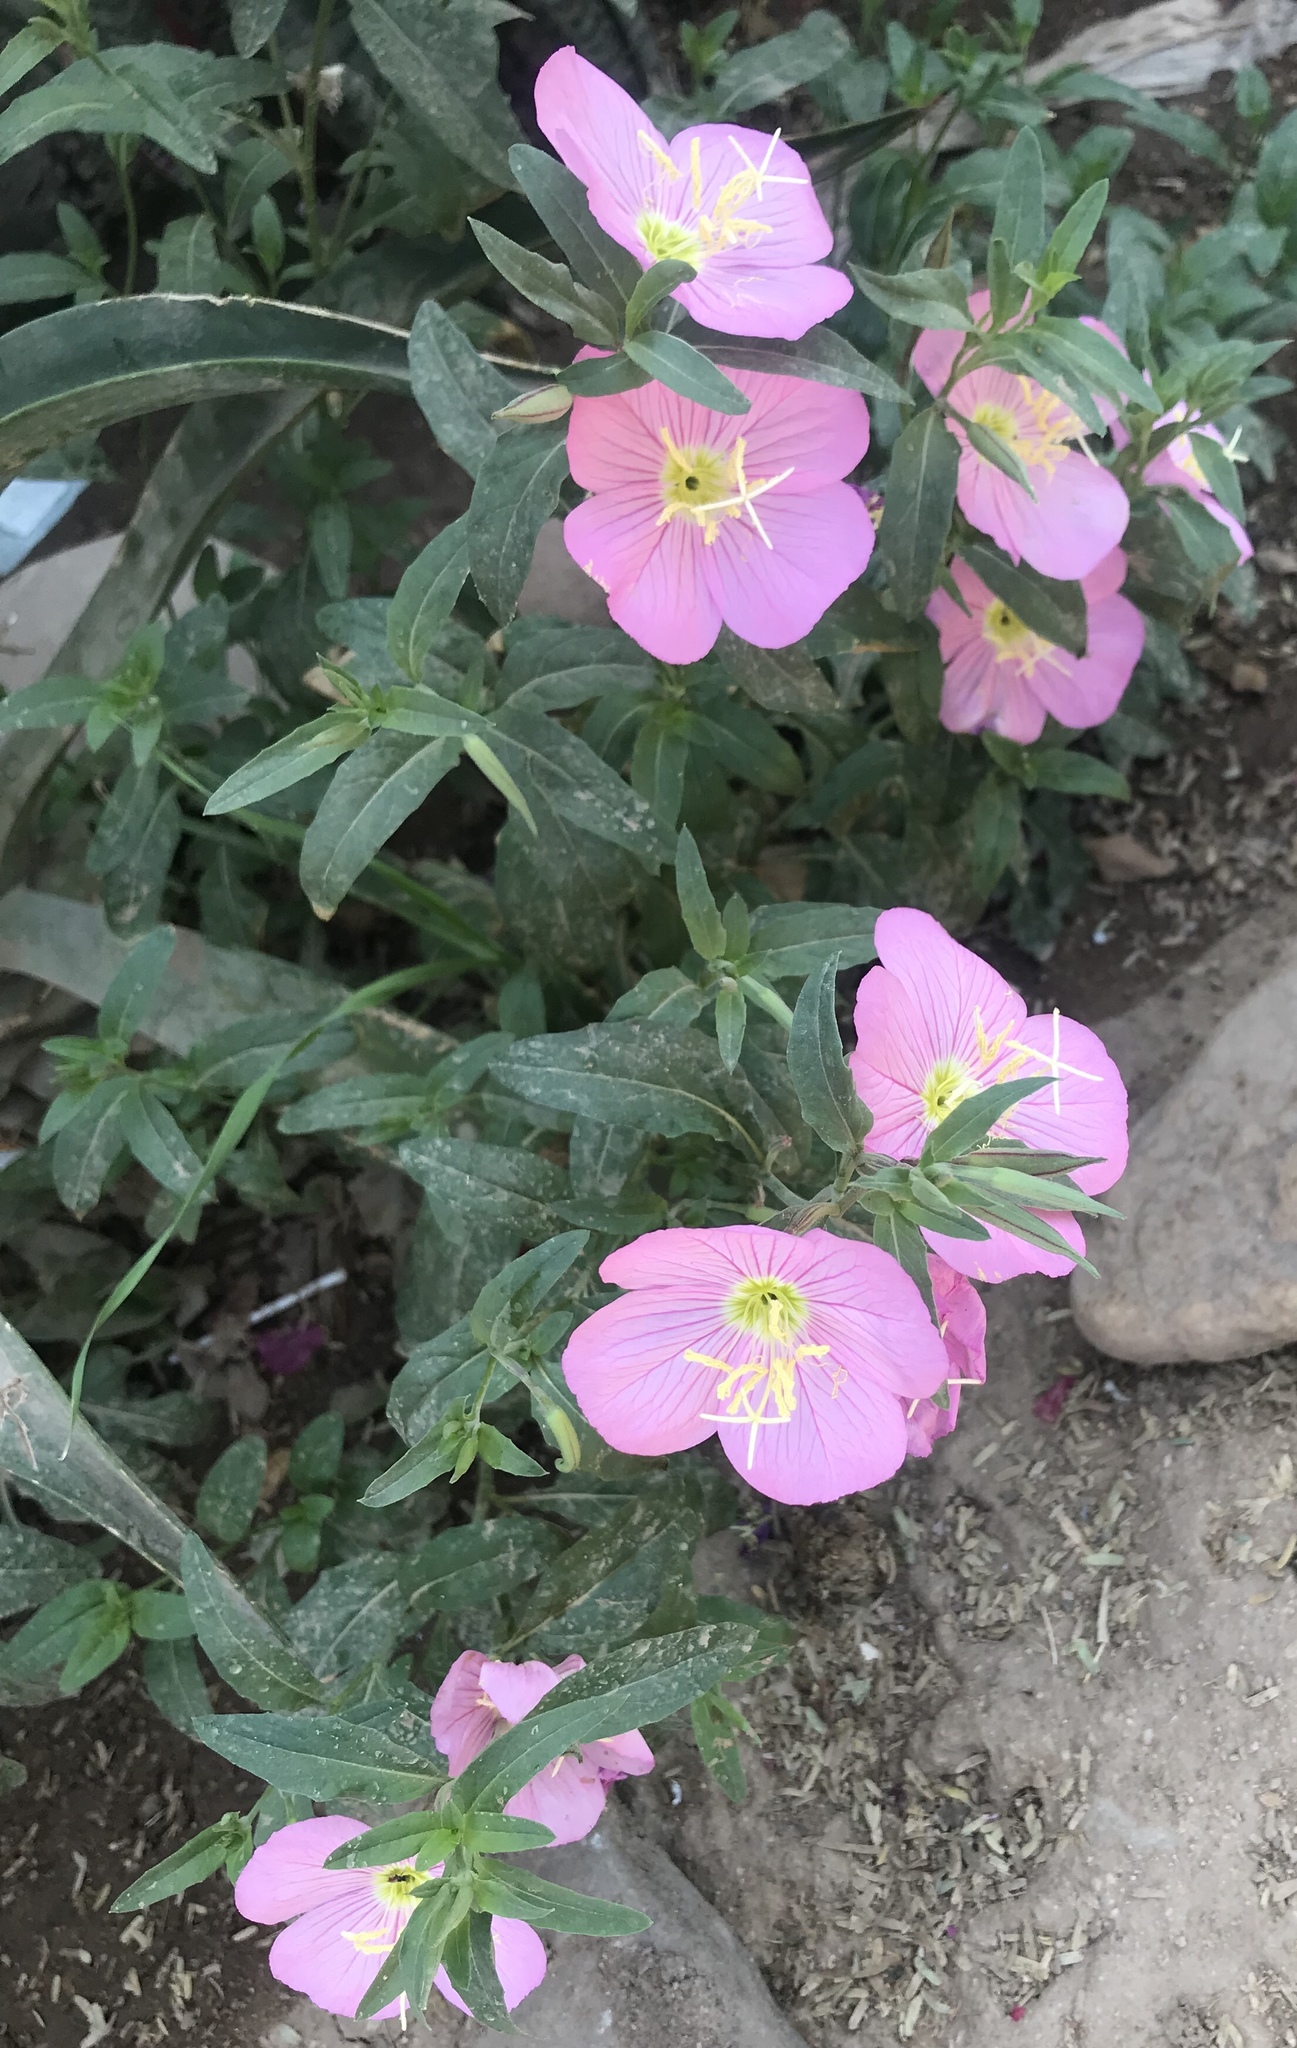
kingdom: Plantae
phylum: Tracheophyta
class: Magnoliopsida
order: Myrtales
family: Onagraceae
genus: Oenothera
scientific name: Oenothera speciosa
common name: White evening-primrose
